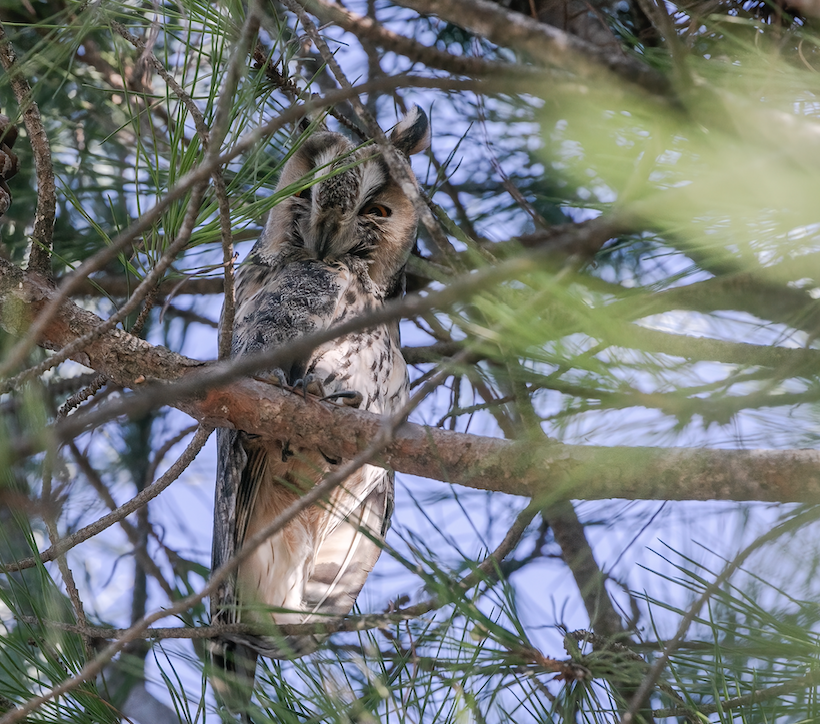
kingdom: Animalia
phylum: Chordata
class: Aves
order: Strigiformes
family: Strigidae
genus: Asio
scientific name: Asio otus
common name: Long-eared owl
